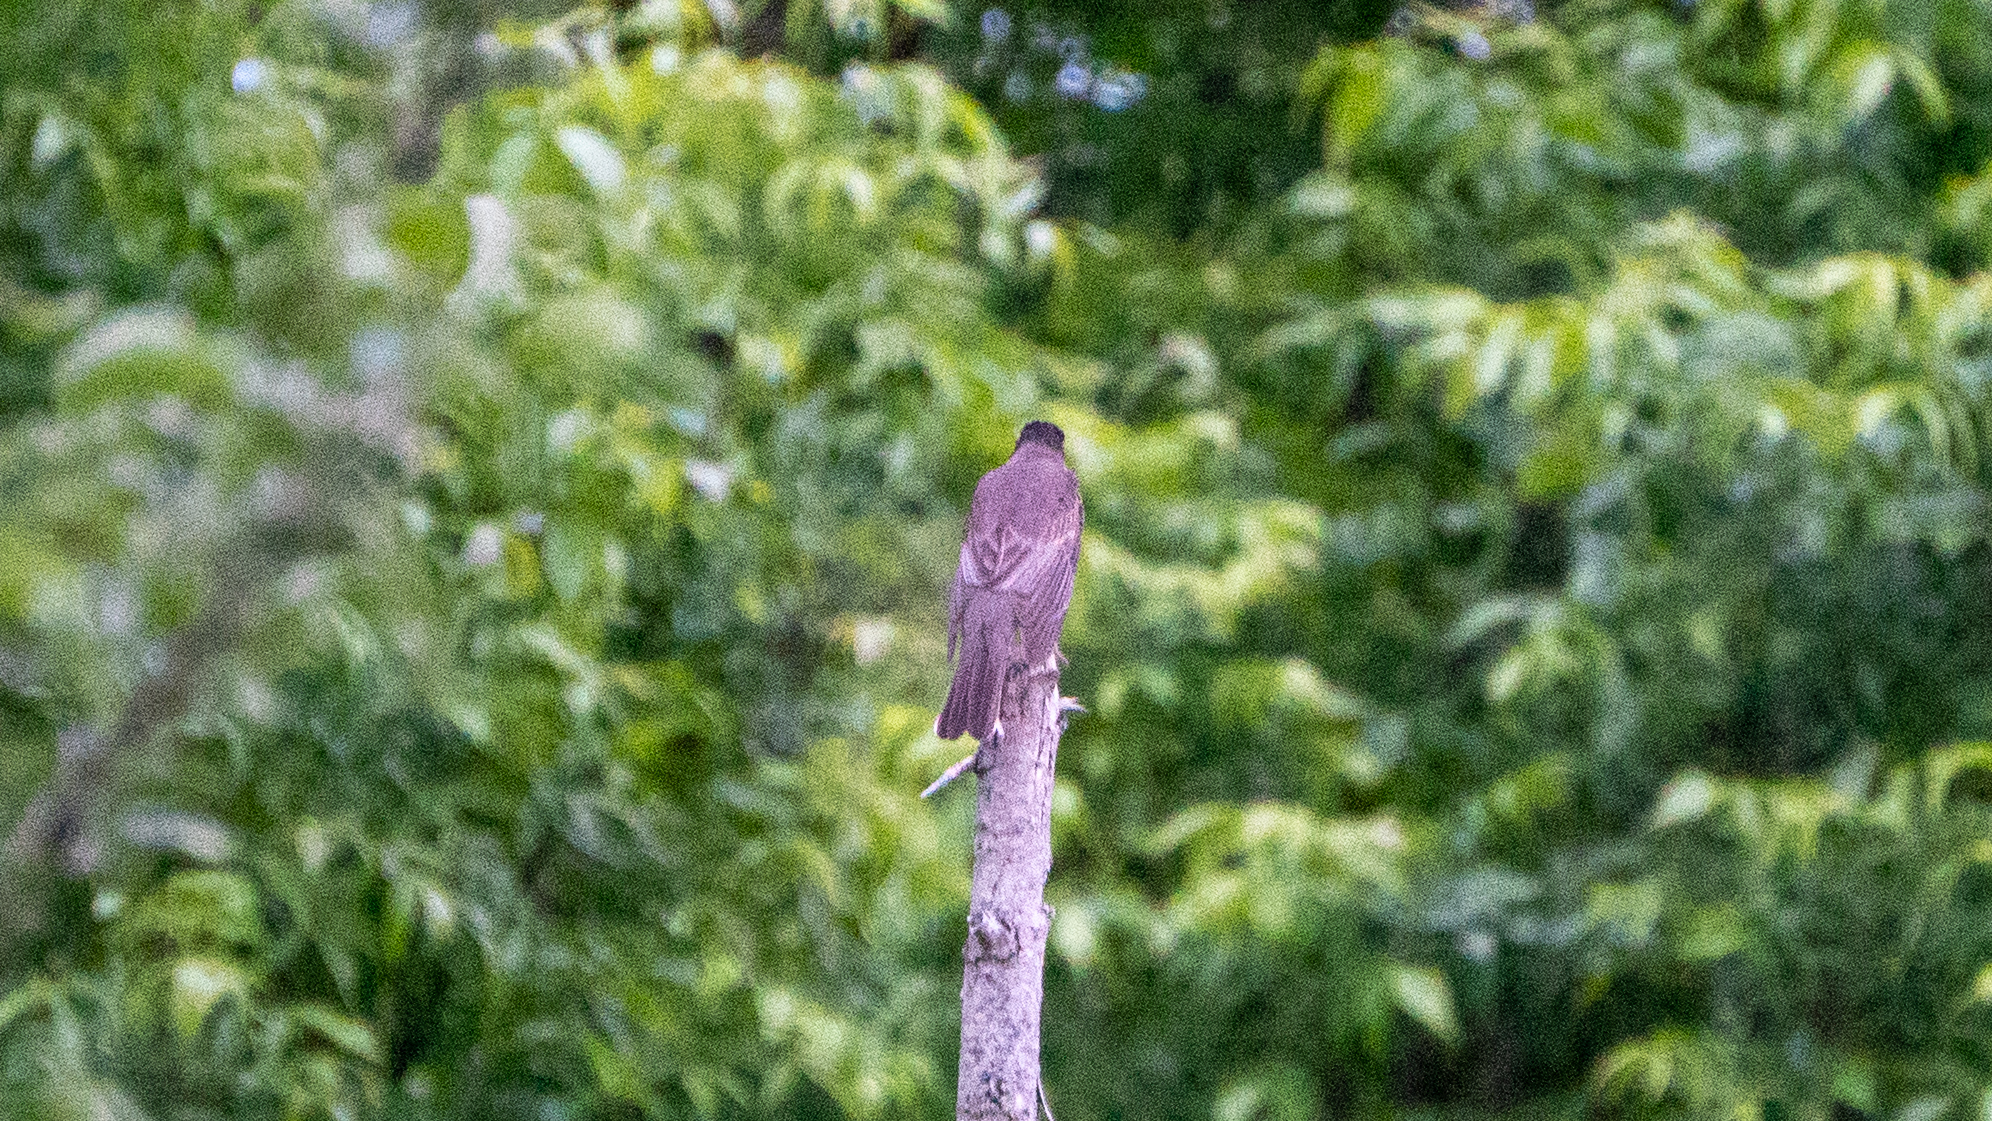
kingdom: Animalia
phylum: Chordata
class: Aves
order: Passeriformes
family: Turdidae
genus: Turdus
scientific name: Turdus migratorius
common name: American robin
